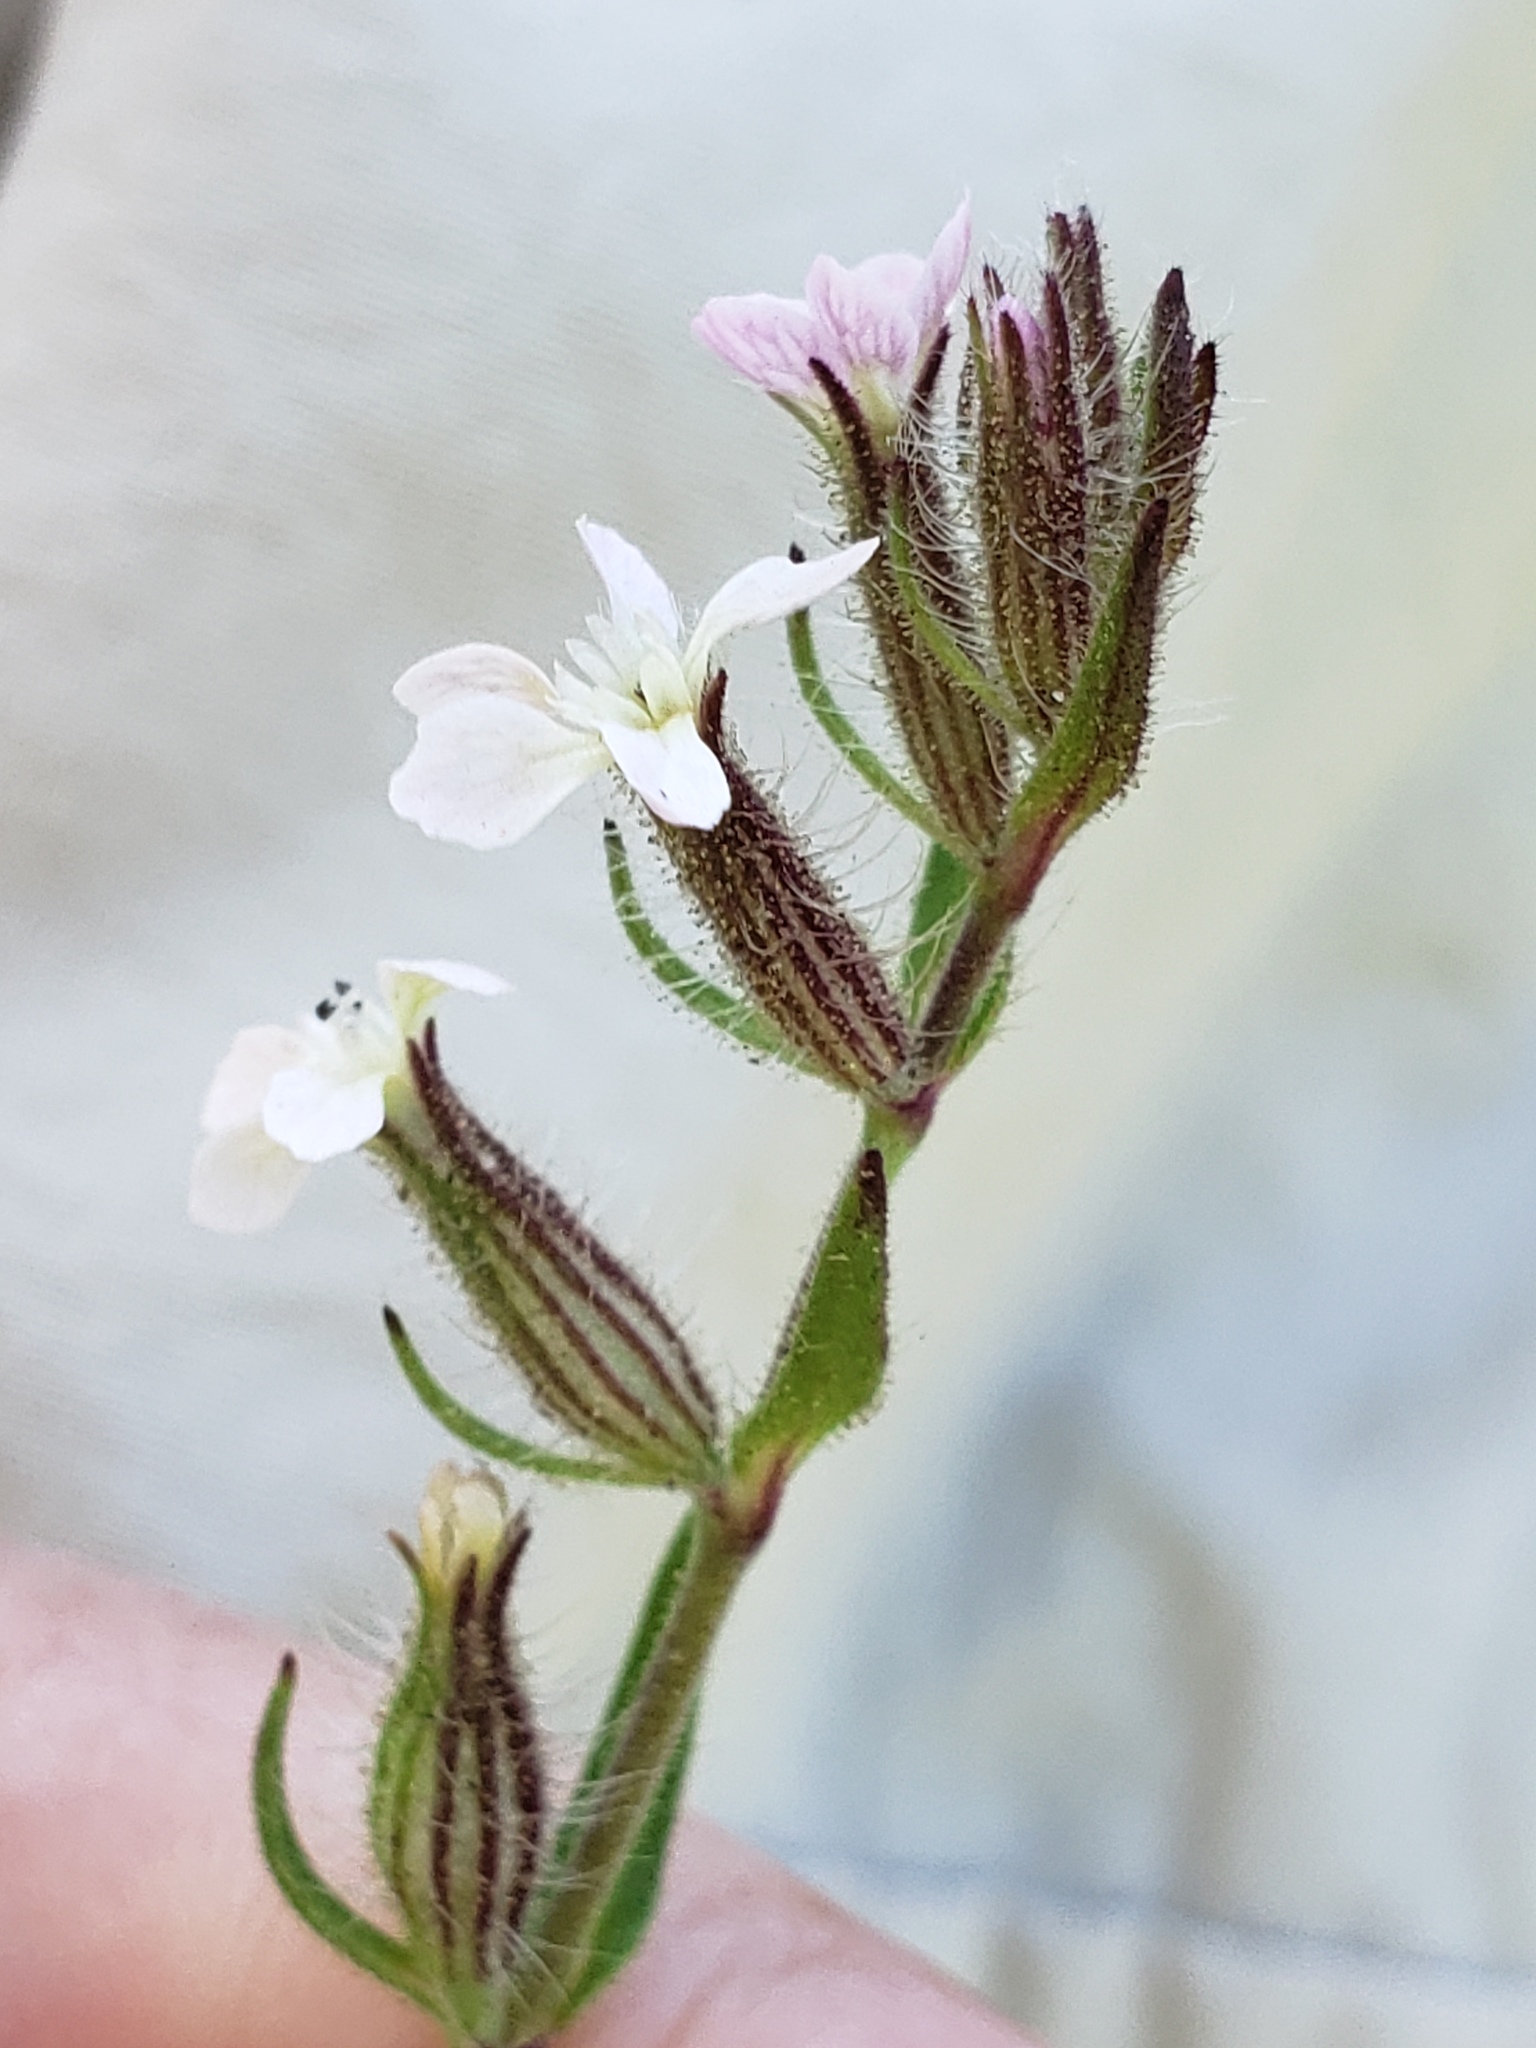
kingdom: Plantae
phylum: Tracheophyta
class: Magnoliopsida
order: Caryophyllales
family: Caryophyllaceae
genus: Silene
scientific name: Silene gallica
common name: Small-flowered catchfly
